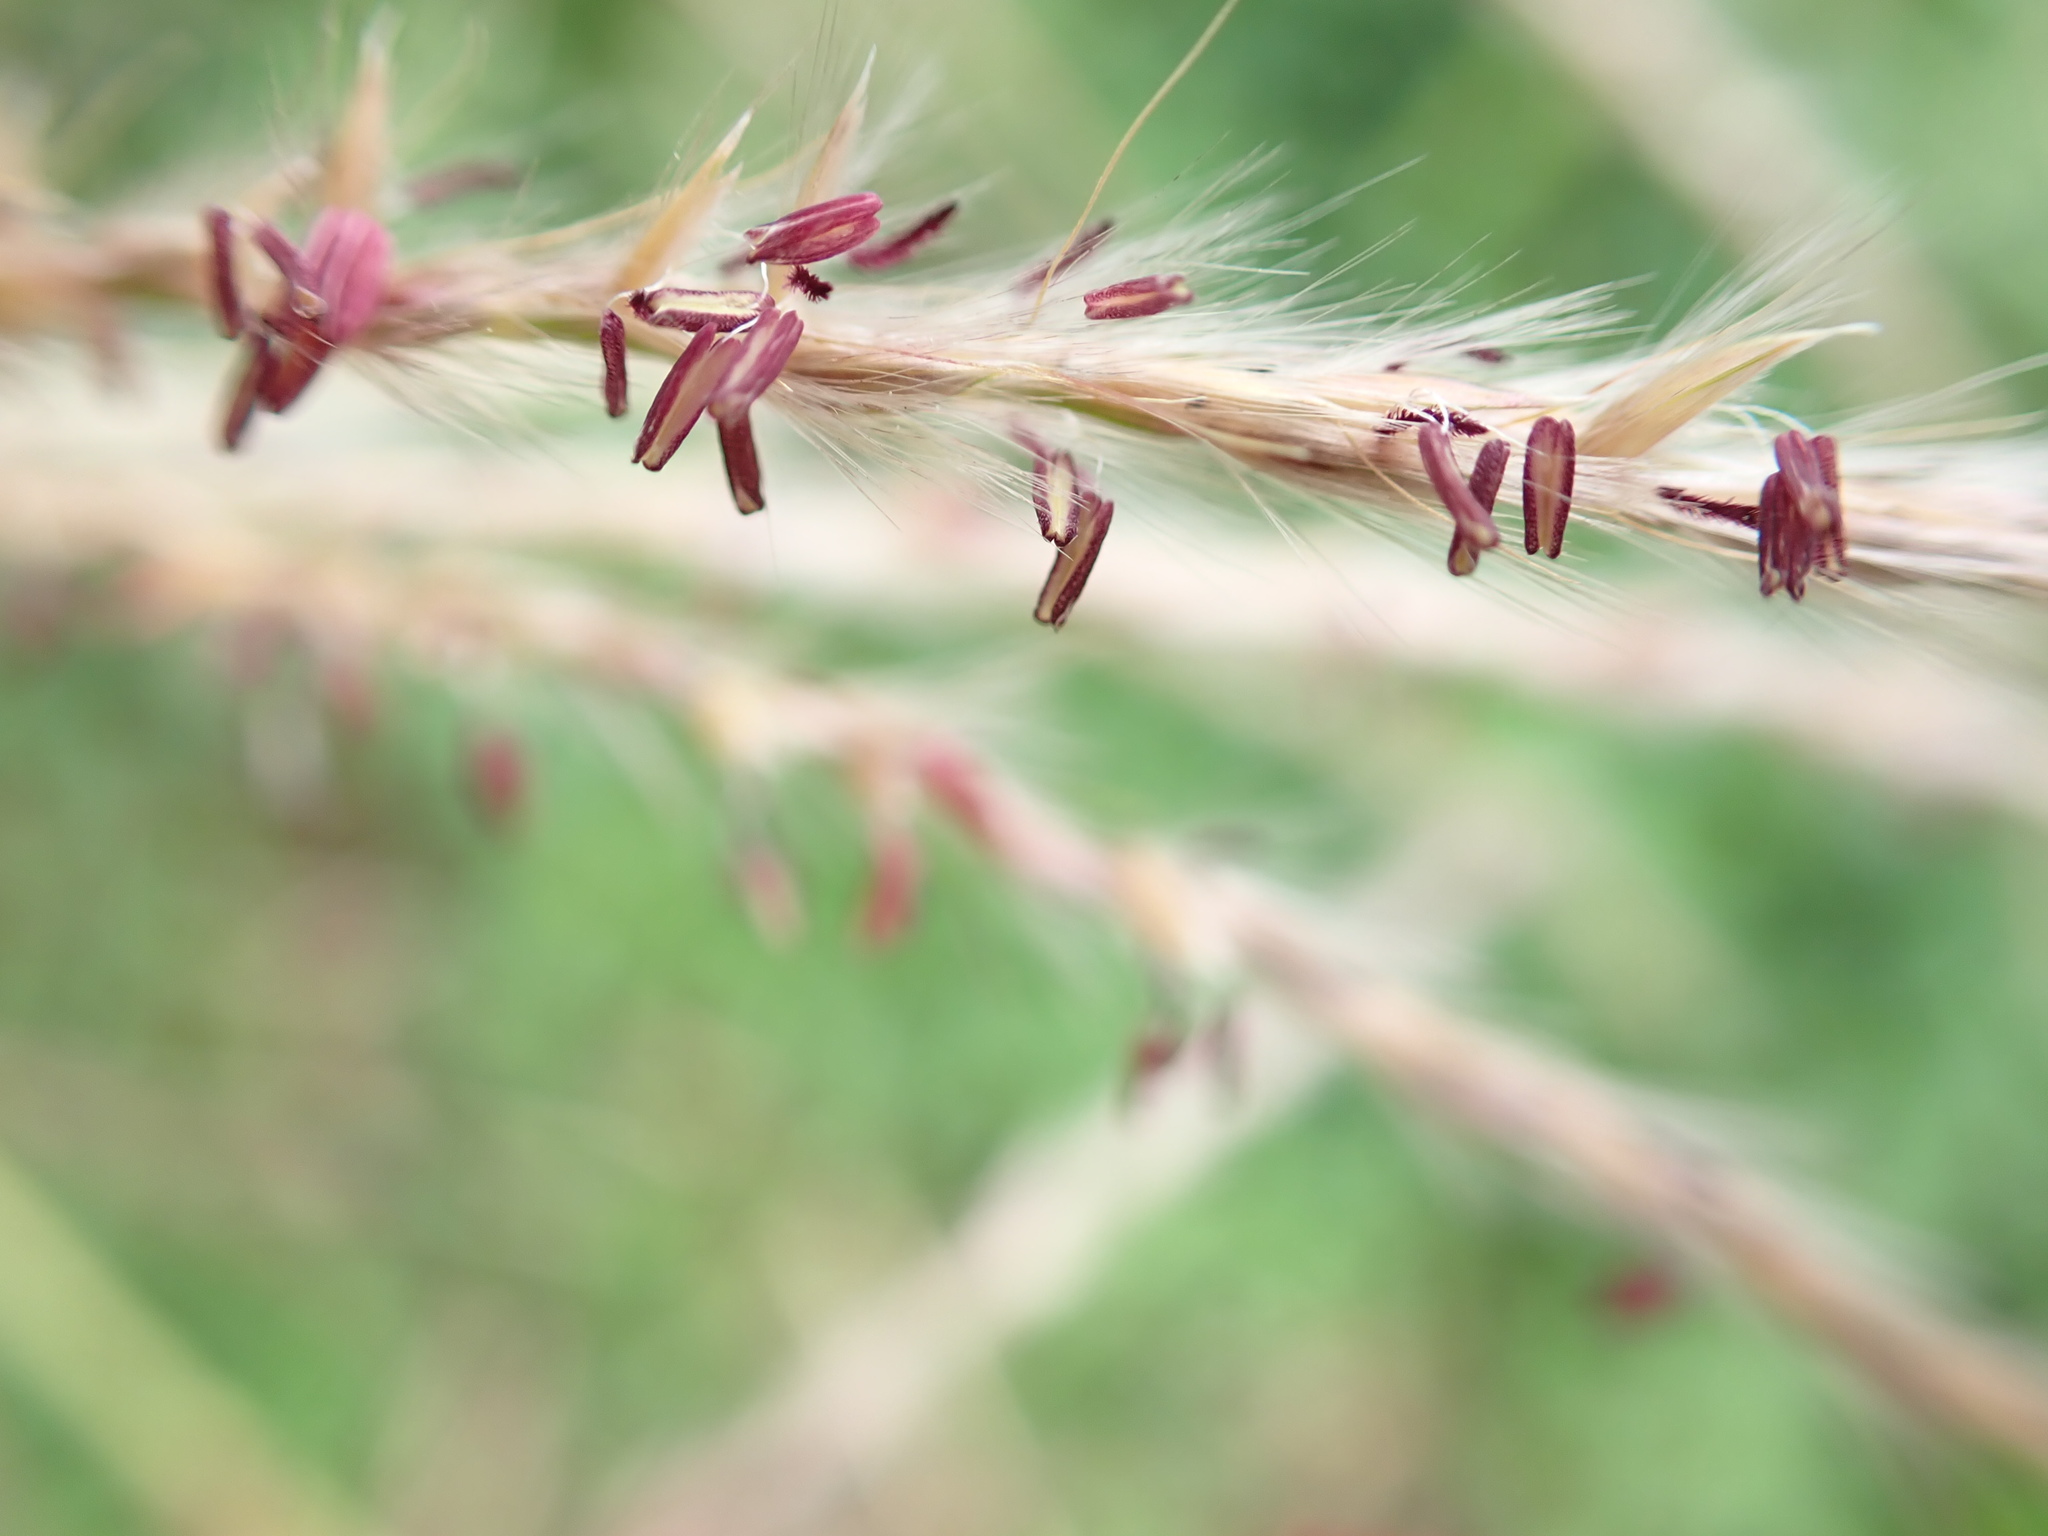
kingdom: Plantae
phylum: Tracheophyta
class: Liliopsida
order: Poales
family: Poaceae
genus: Miscanthus
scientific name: Miscanthus sinensis
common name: Chinese silvergrass
